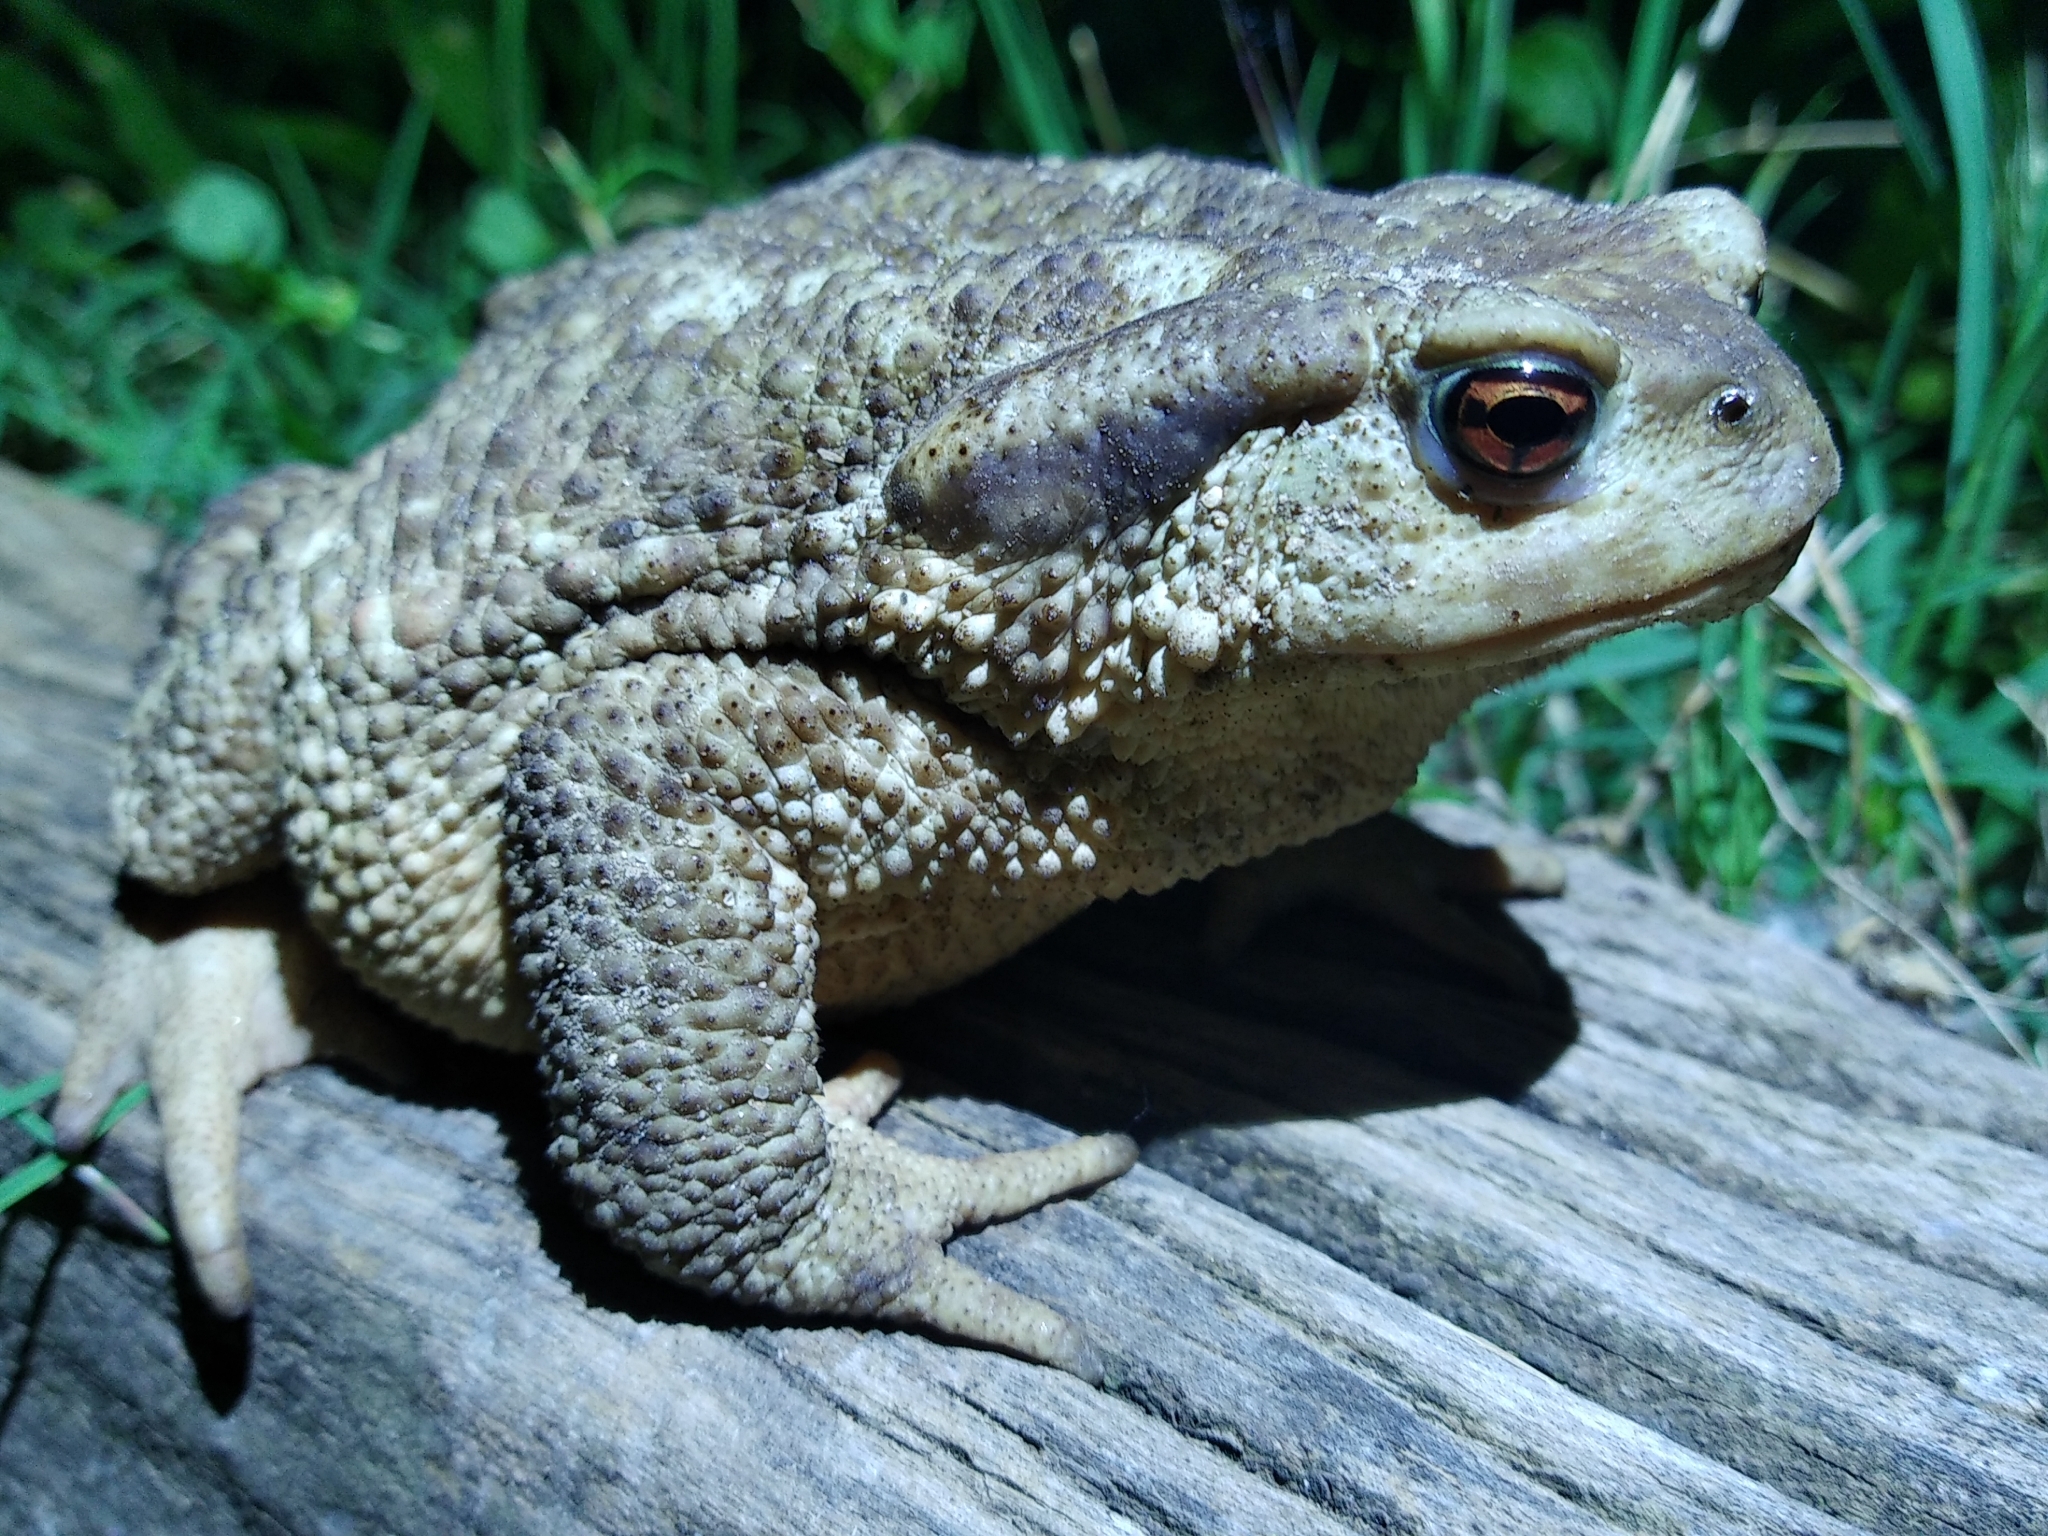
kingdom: Animalia
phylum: Chordata
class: Amphibia
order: Anura
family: Bufonidae
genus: Bufo
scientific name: Bufo spinosus
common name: Western common toad
